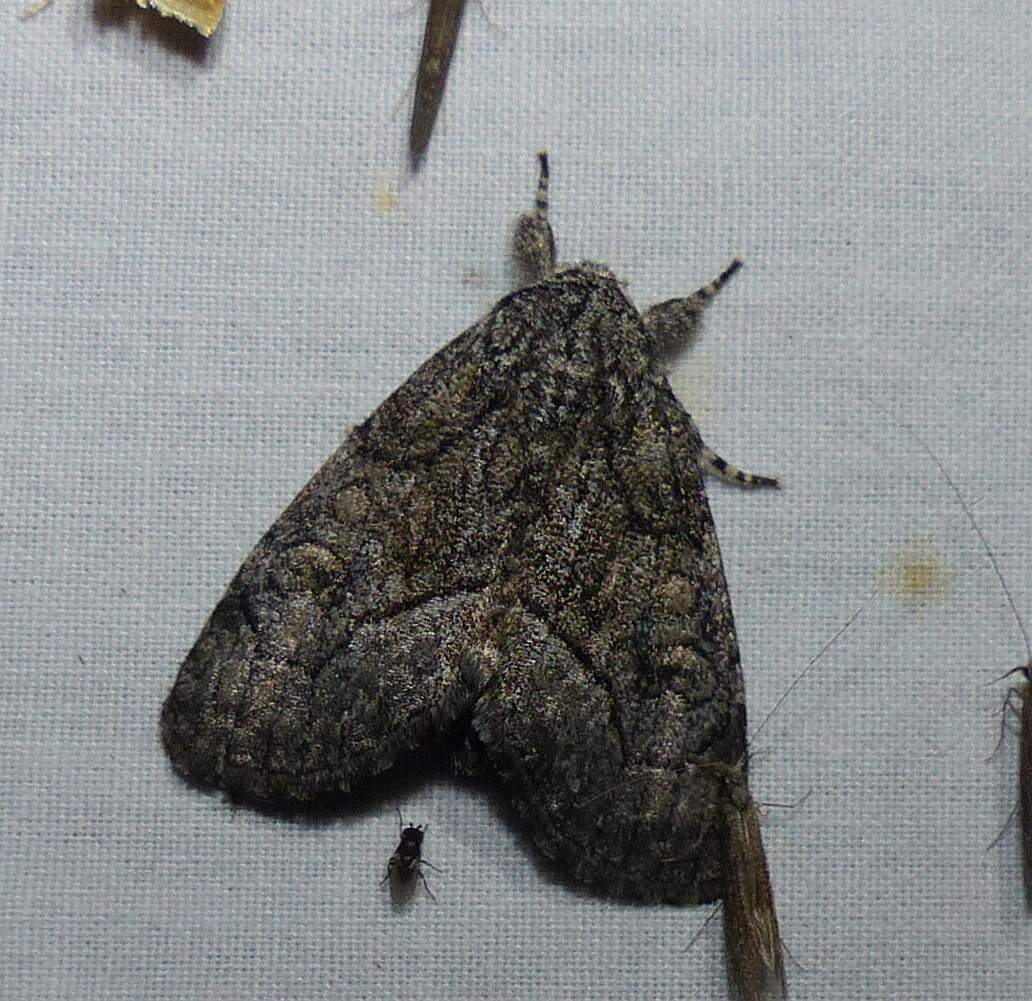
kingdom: Animalia
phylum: Arthropoda
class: Insecta
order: Lepidoptera
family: Noctuidae
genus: Raphia
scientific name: Raphia frater
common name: Brother
